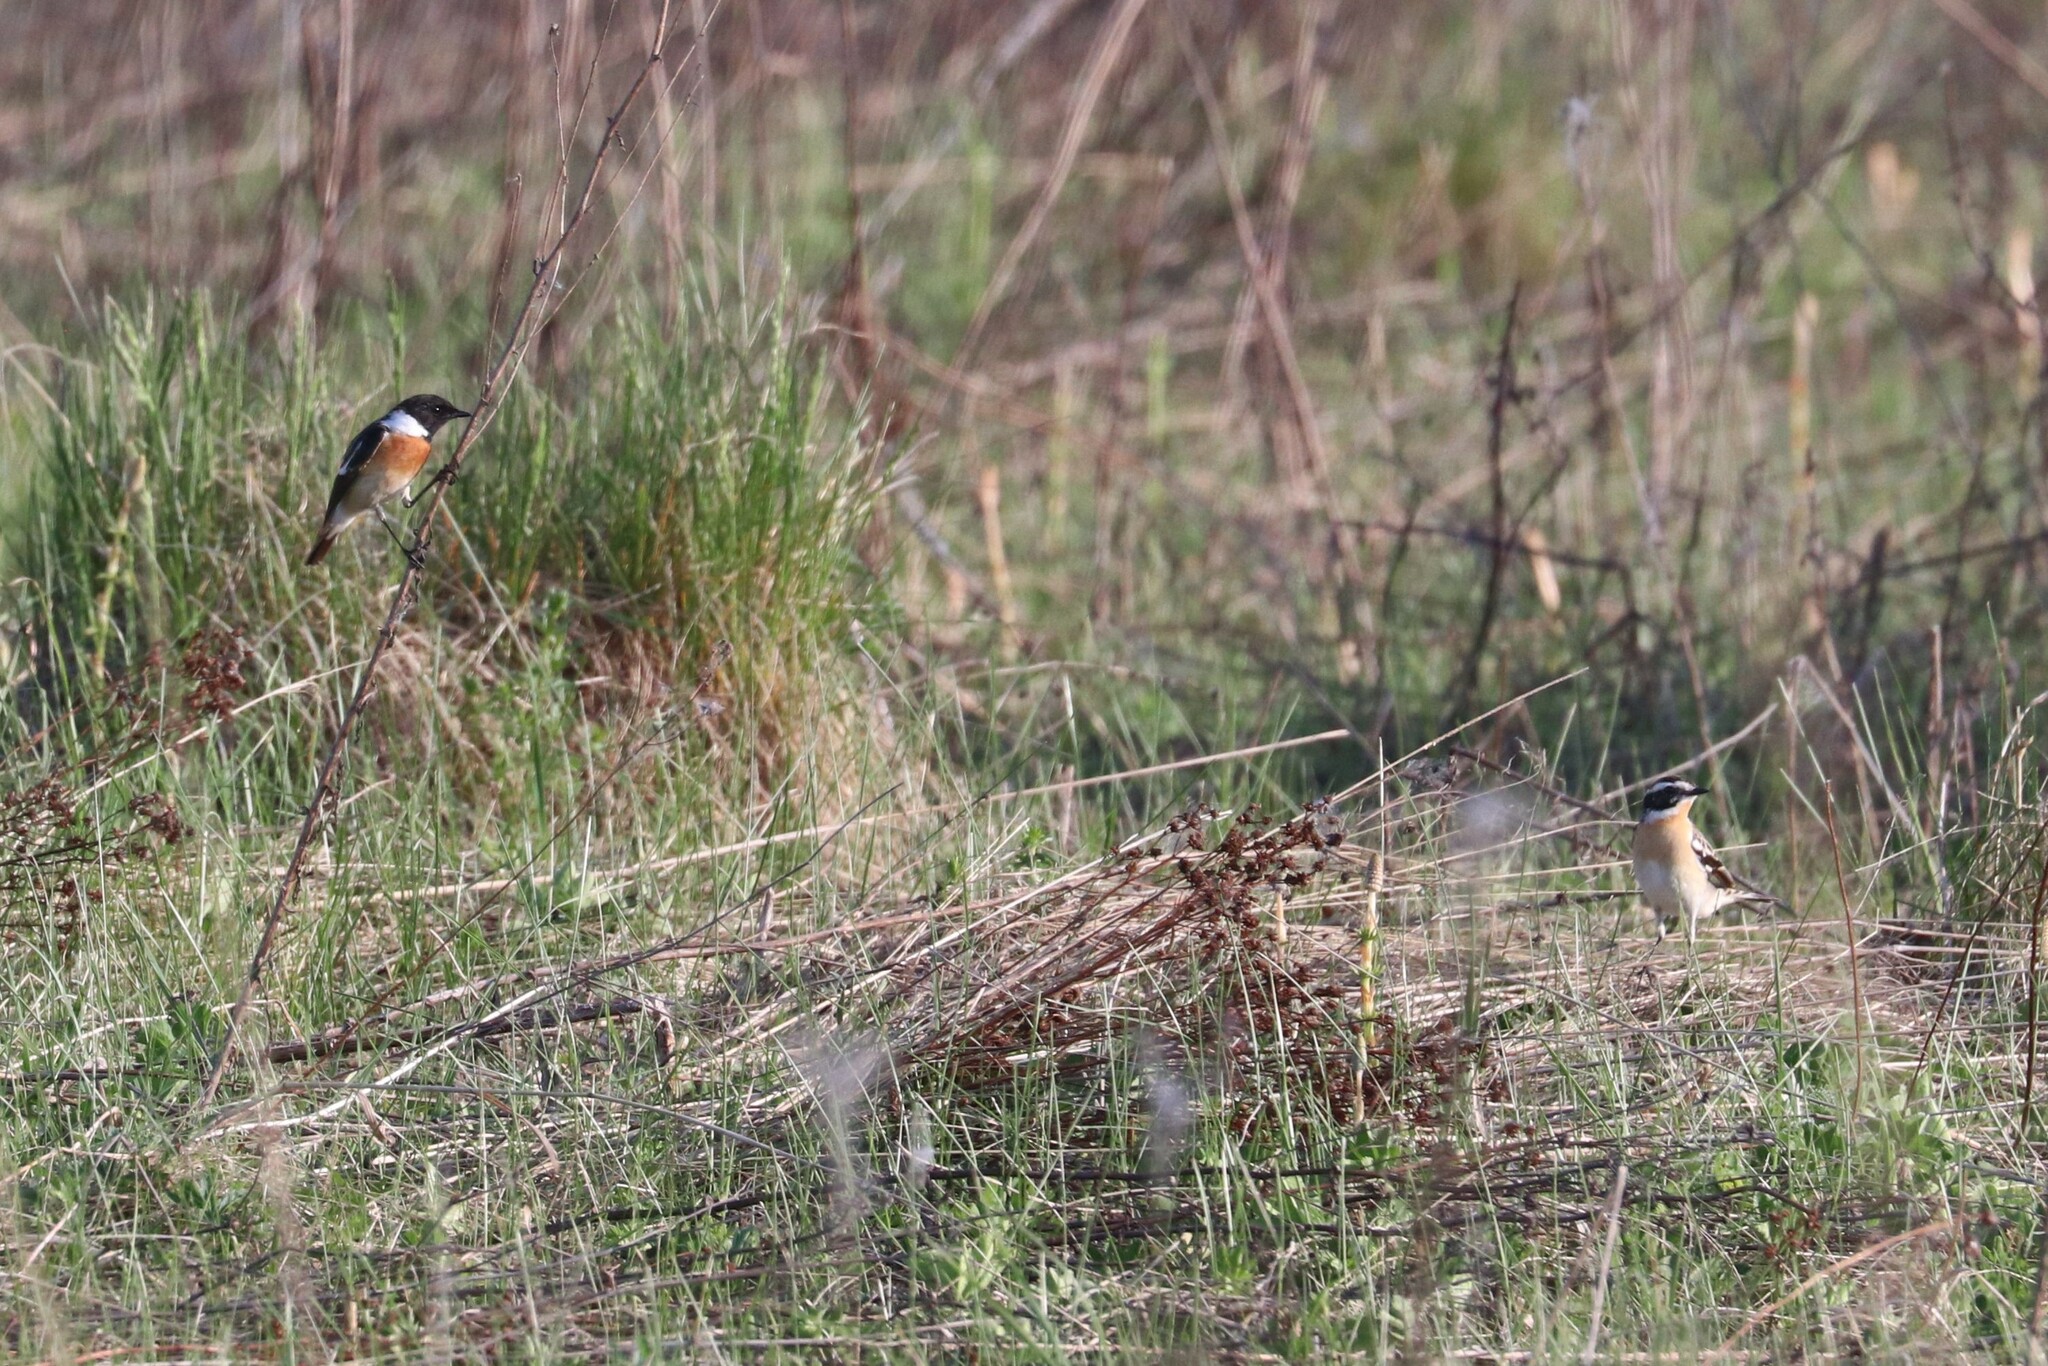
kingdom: Animalia
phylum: Chordata
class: Aves
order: Passeriformes
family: Muscicapidae
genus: Saxicola
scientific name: Saxicola maurus
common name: Siberian stonechat
